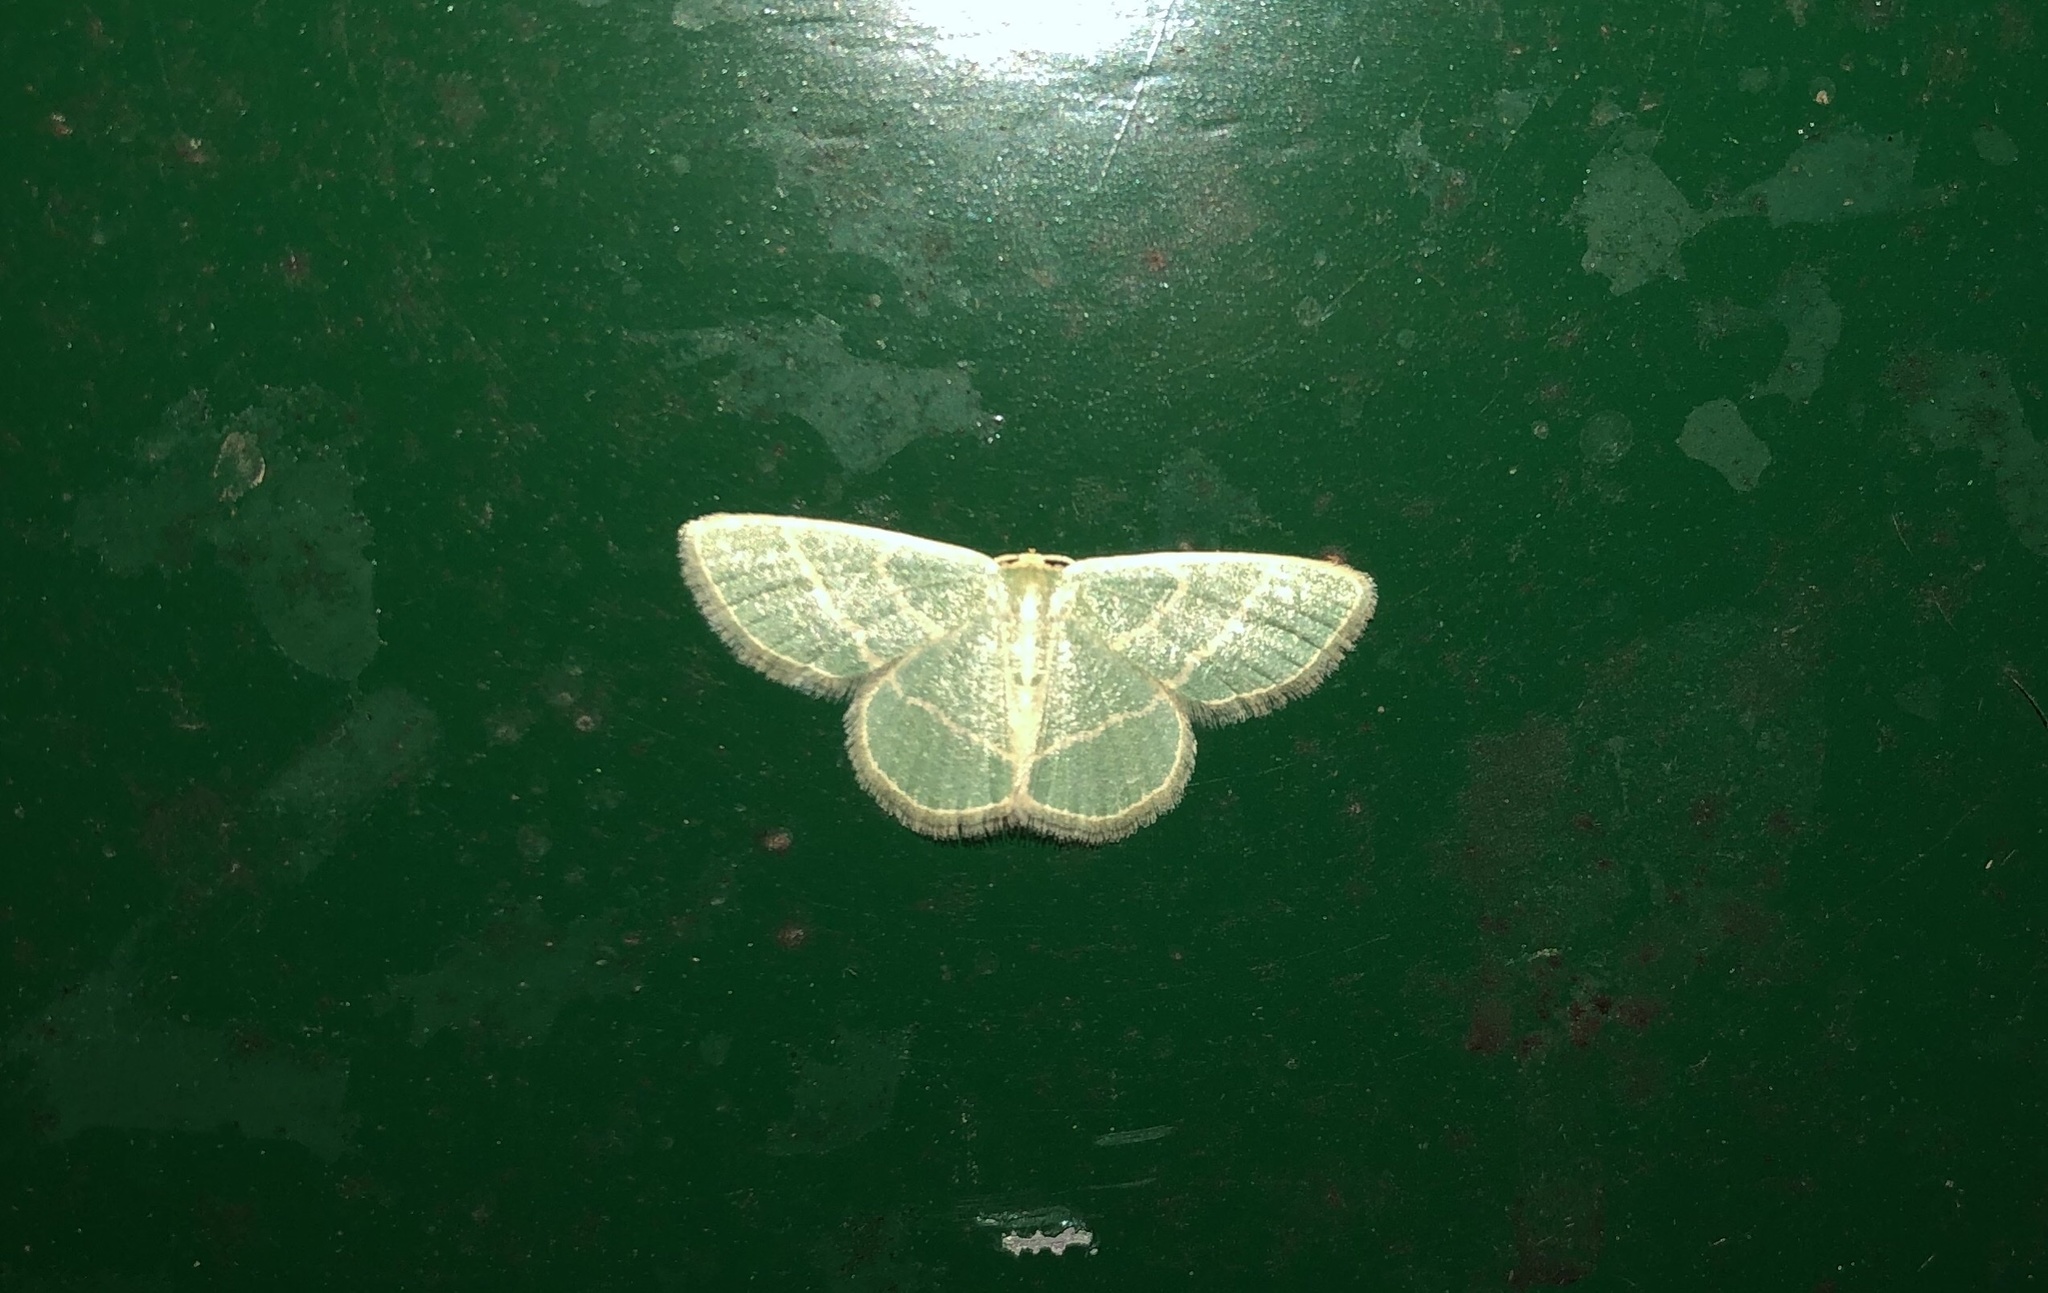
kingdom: Animalia
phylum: Arthropoda
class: Insecta
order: Lepidoptera
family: Geometridae
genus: Chlorochlamys
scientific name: Chlorochlamys chloroleucaria
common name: Blackberry looper
